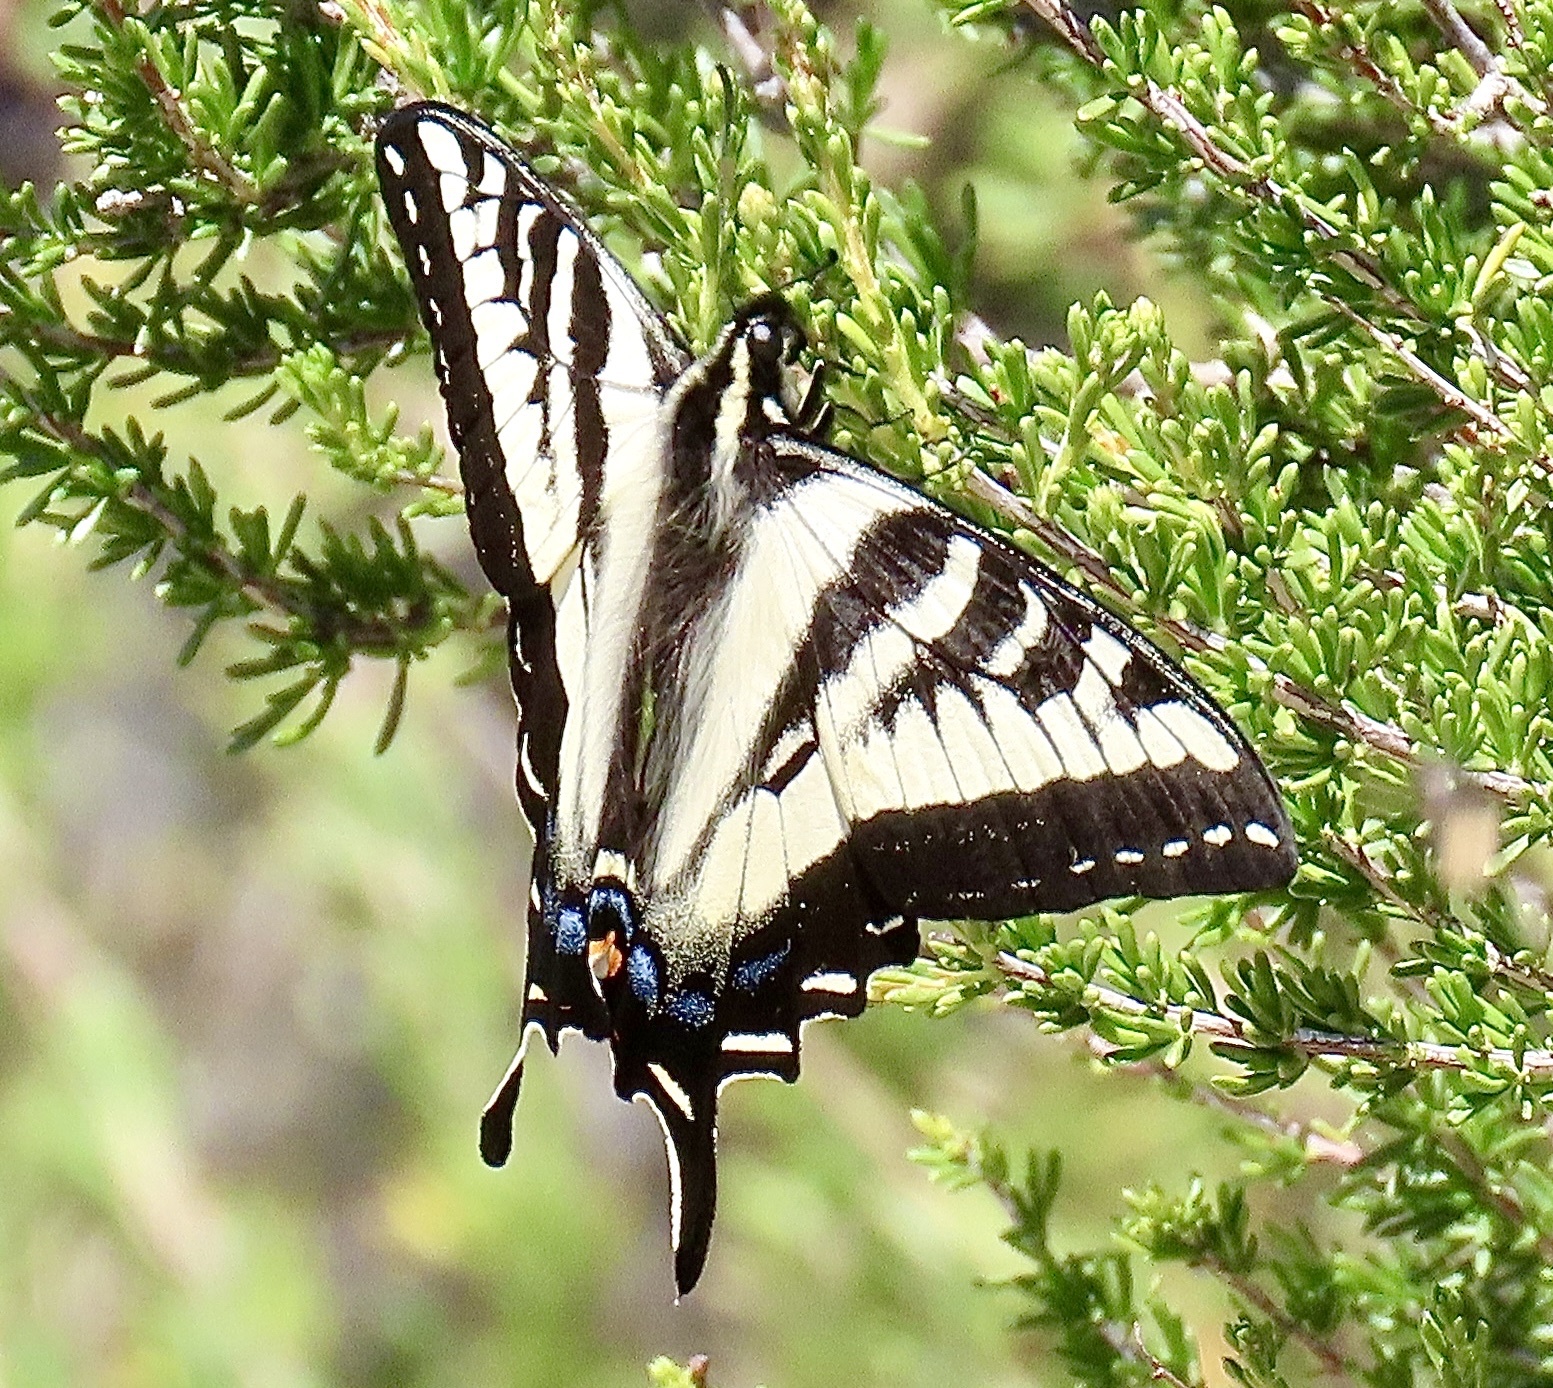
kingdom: Animalia
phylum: Arthropoda
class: Insecta
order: Lepidoptera
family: Papilionidae
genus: Papilio
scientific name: Papilio eurymedon
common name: Pale tiger swallowtail
